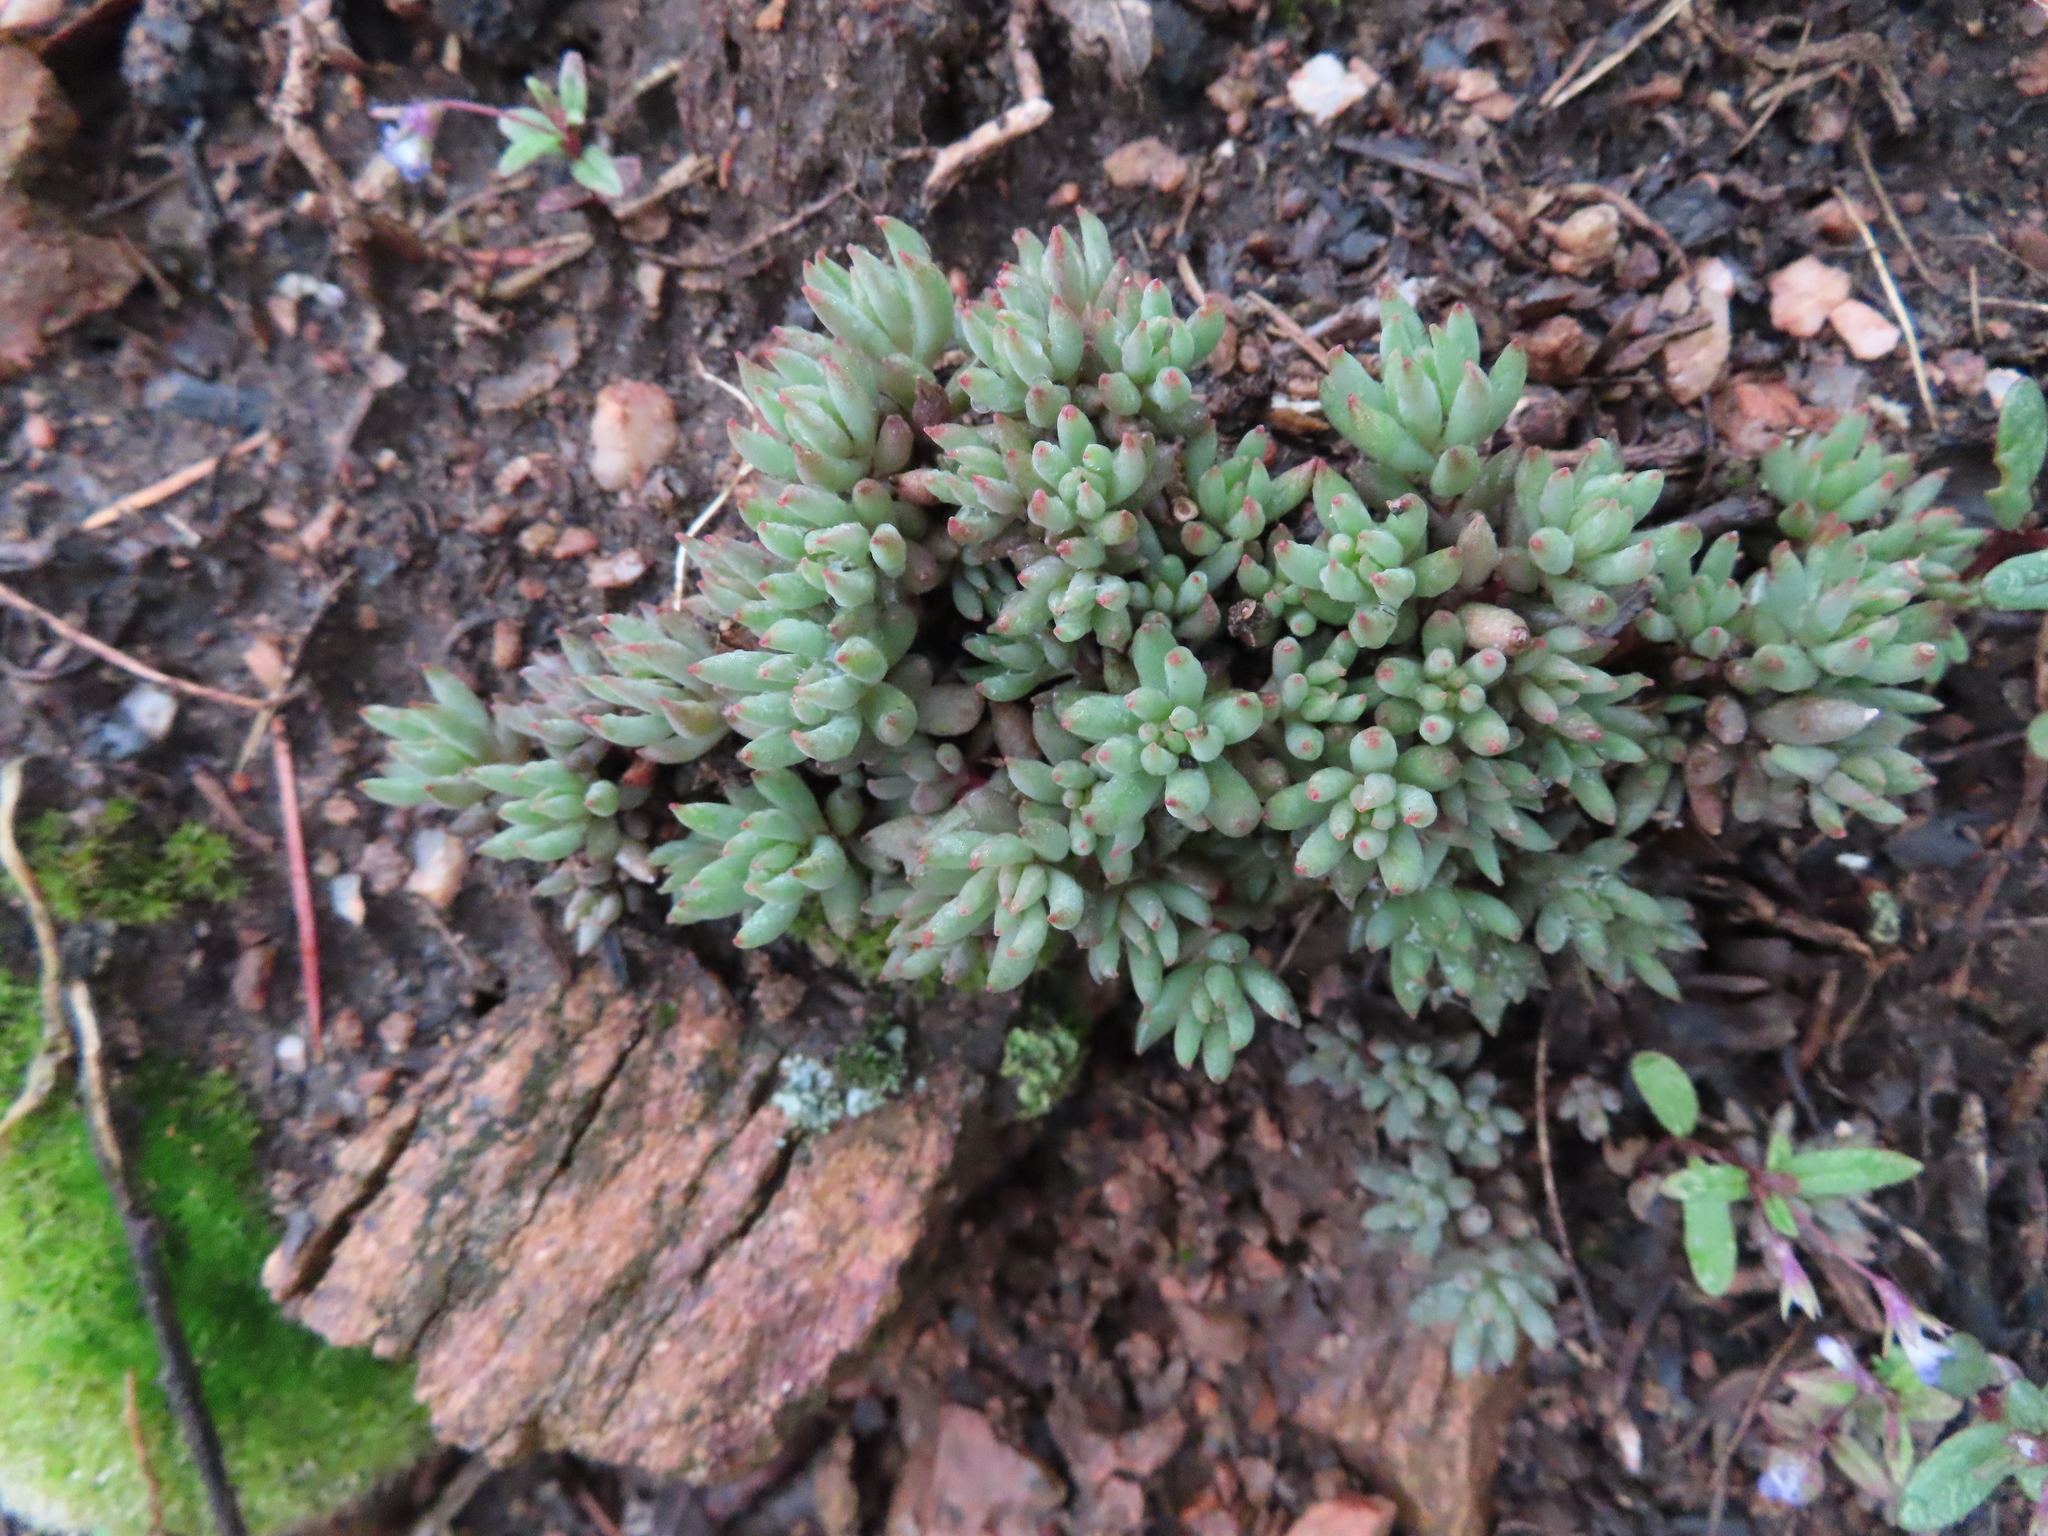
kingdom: Plantae
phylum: Tracheophyta
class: Magnoliopsida
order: Saxifragales
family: Crassulaceae
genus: Sedum
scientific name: Sedum lanceolatum
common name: Common stonecrop
